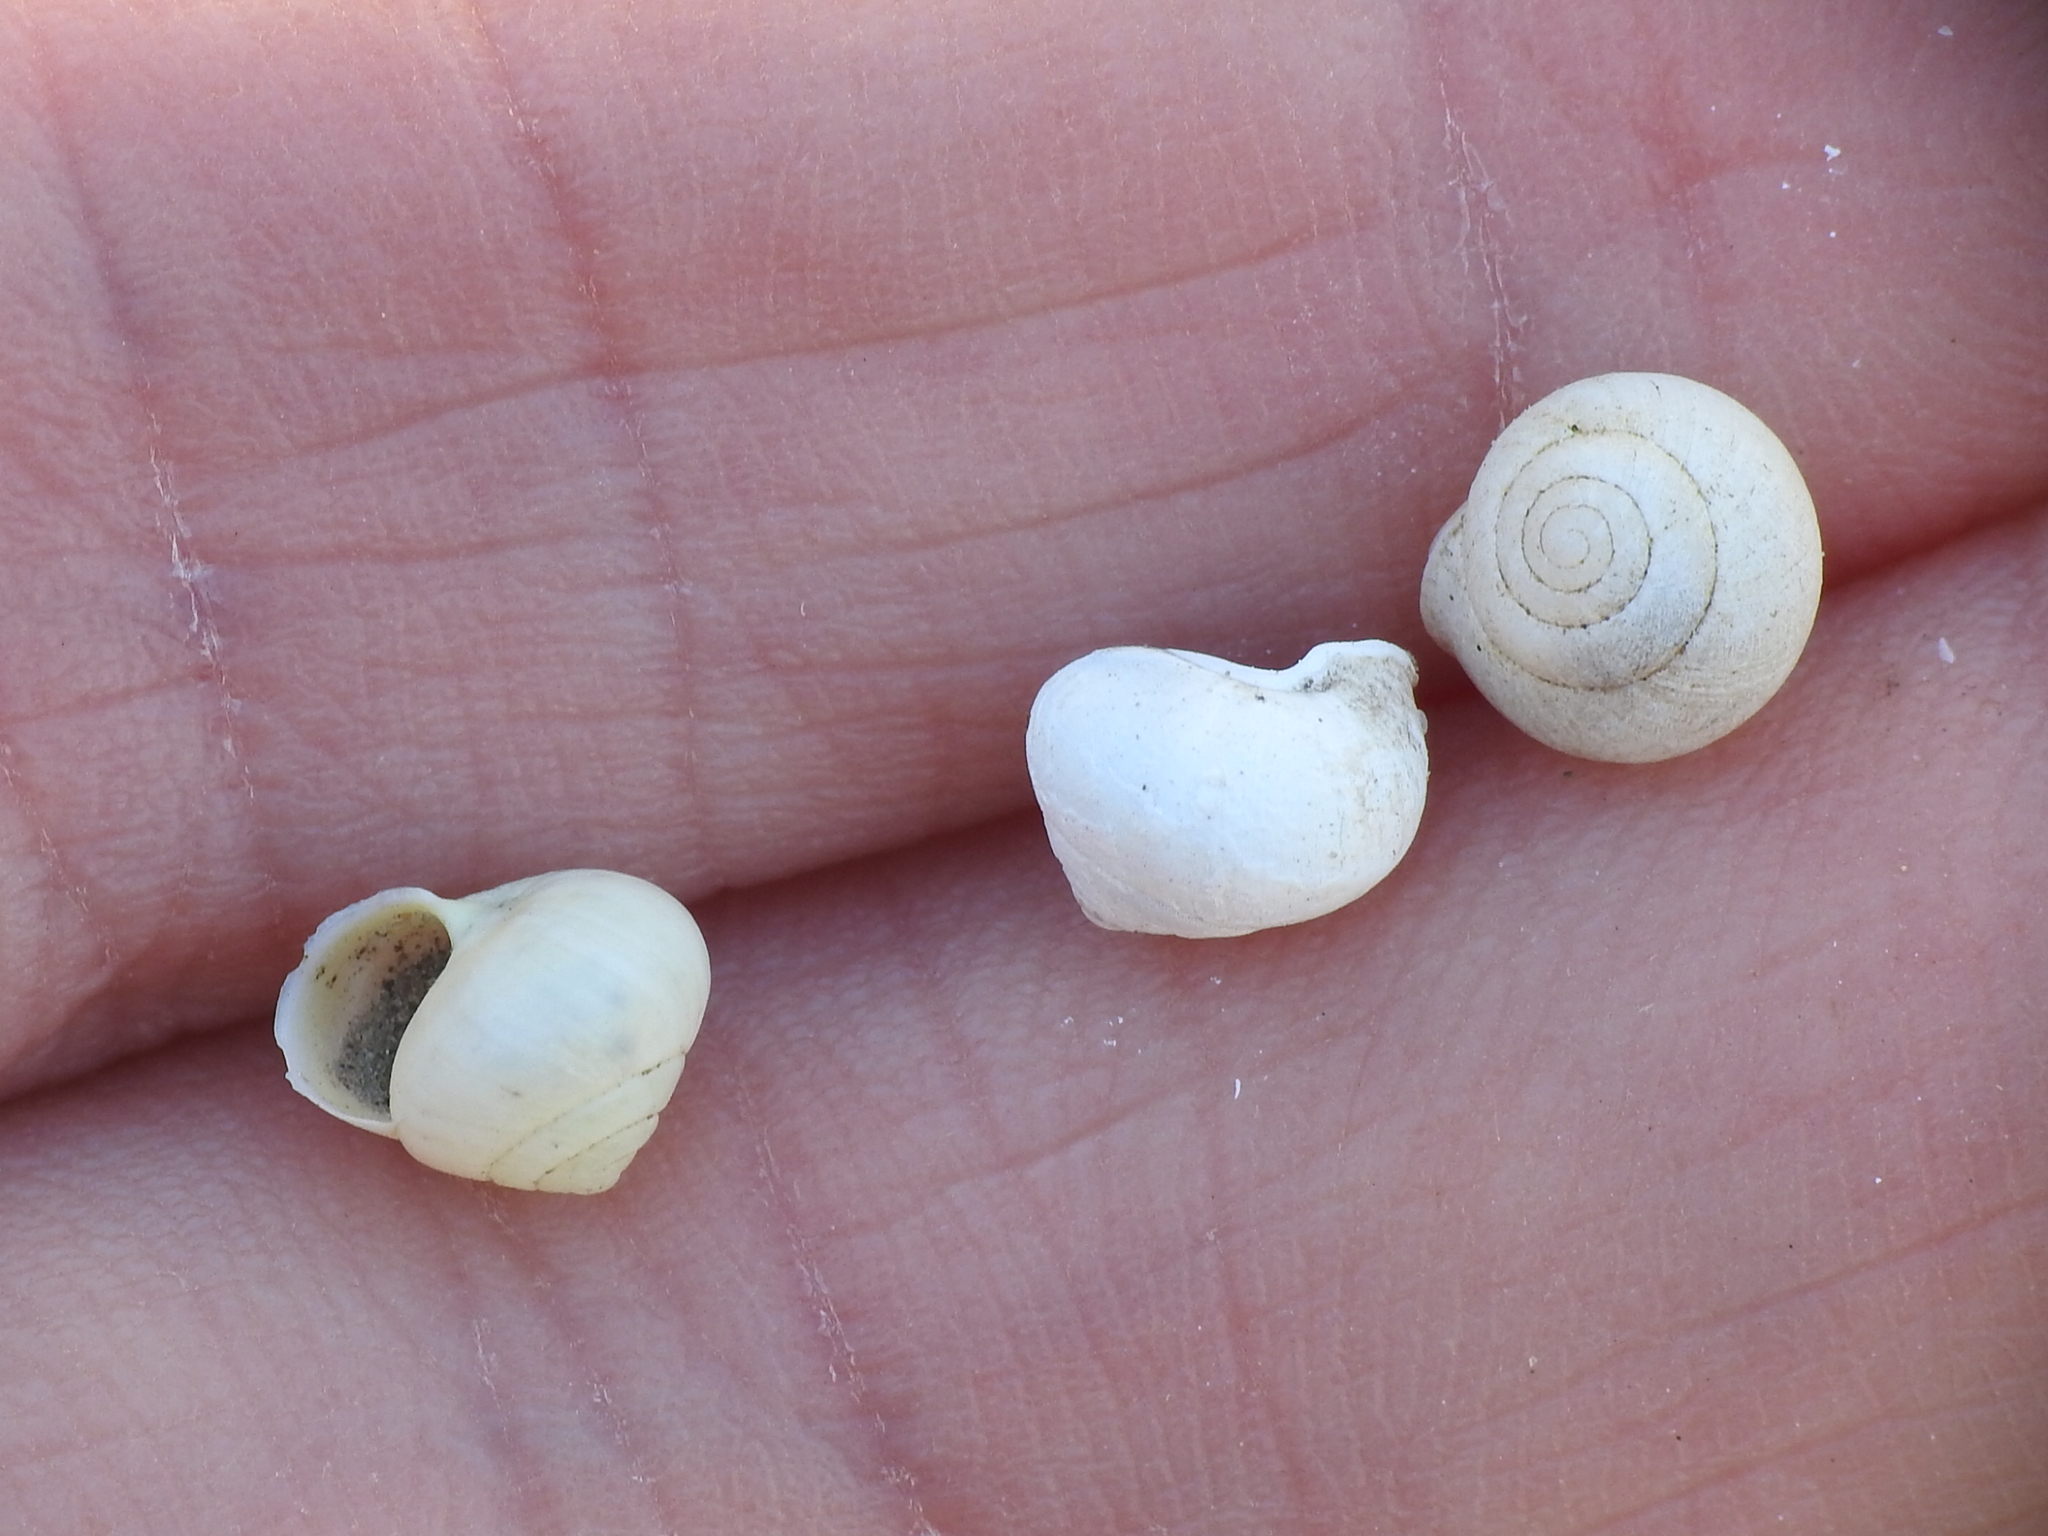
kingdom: Animalia
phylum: Mollusca
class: Gastropoda
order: Cycloneritida
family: Helicinidae
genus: Helicina
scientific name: Helicina orbiculata
